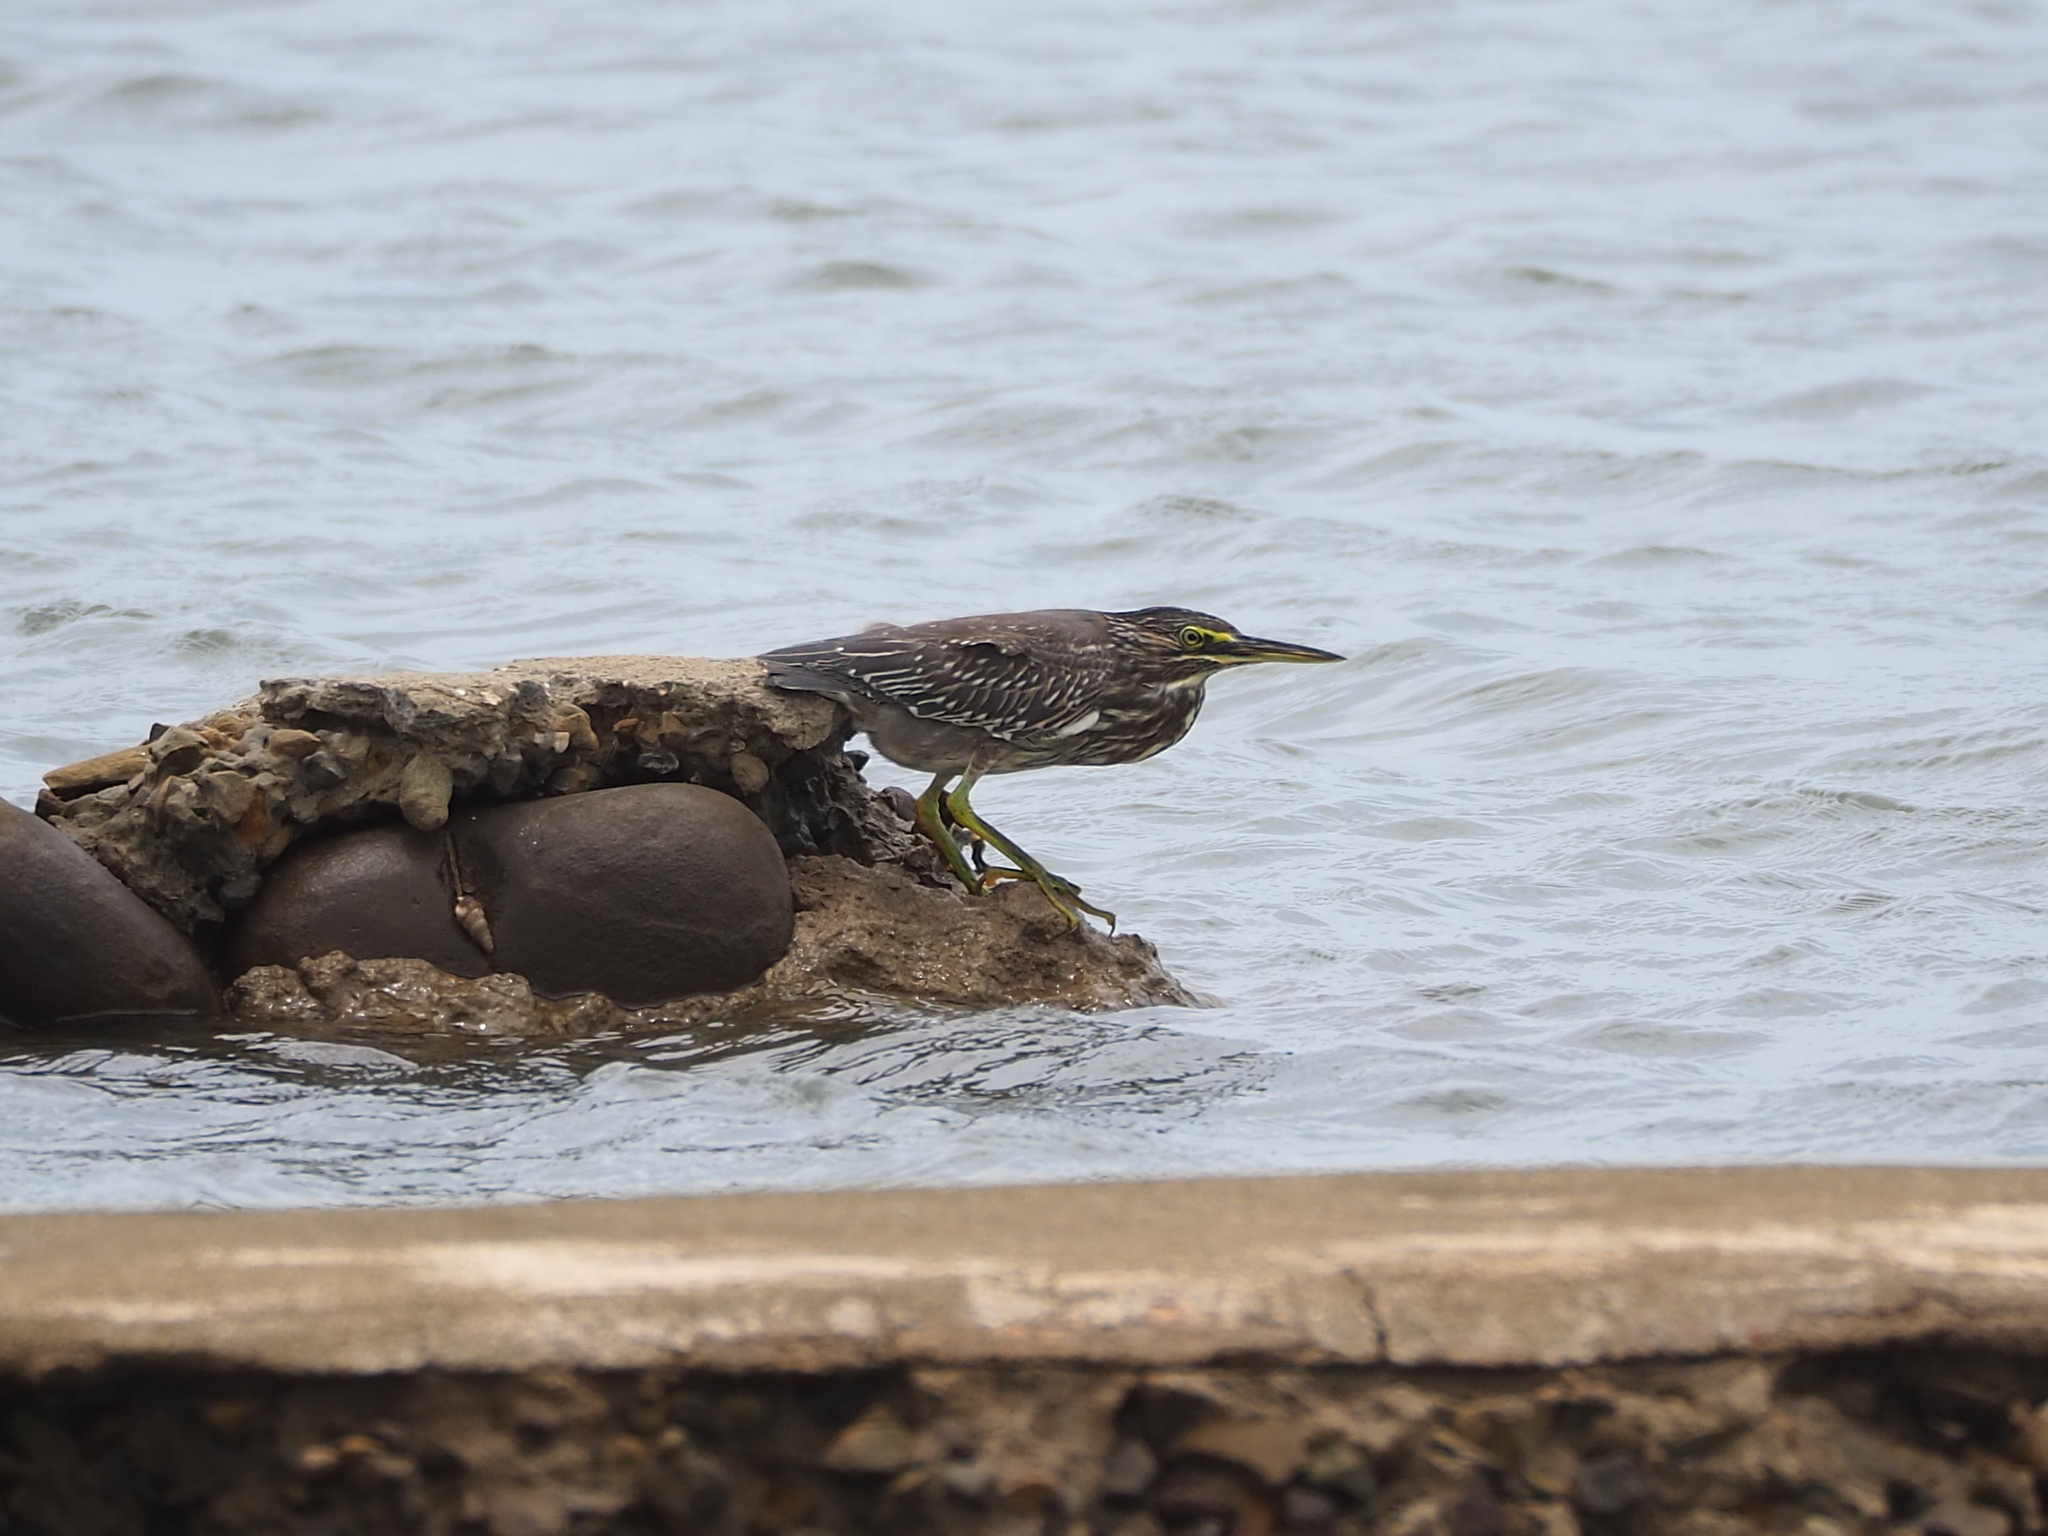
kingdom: Animalia
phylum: Chordata
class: Aves
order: Pelecaniformes
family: Ardeidae
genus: Butorides
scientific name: Butorides striata
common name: Striated heron
